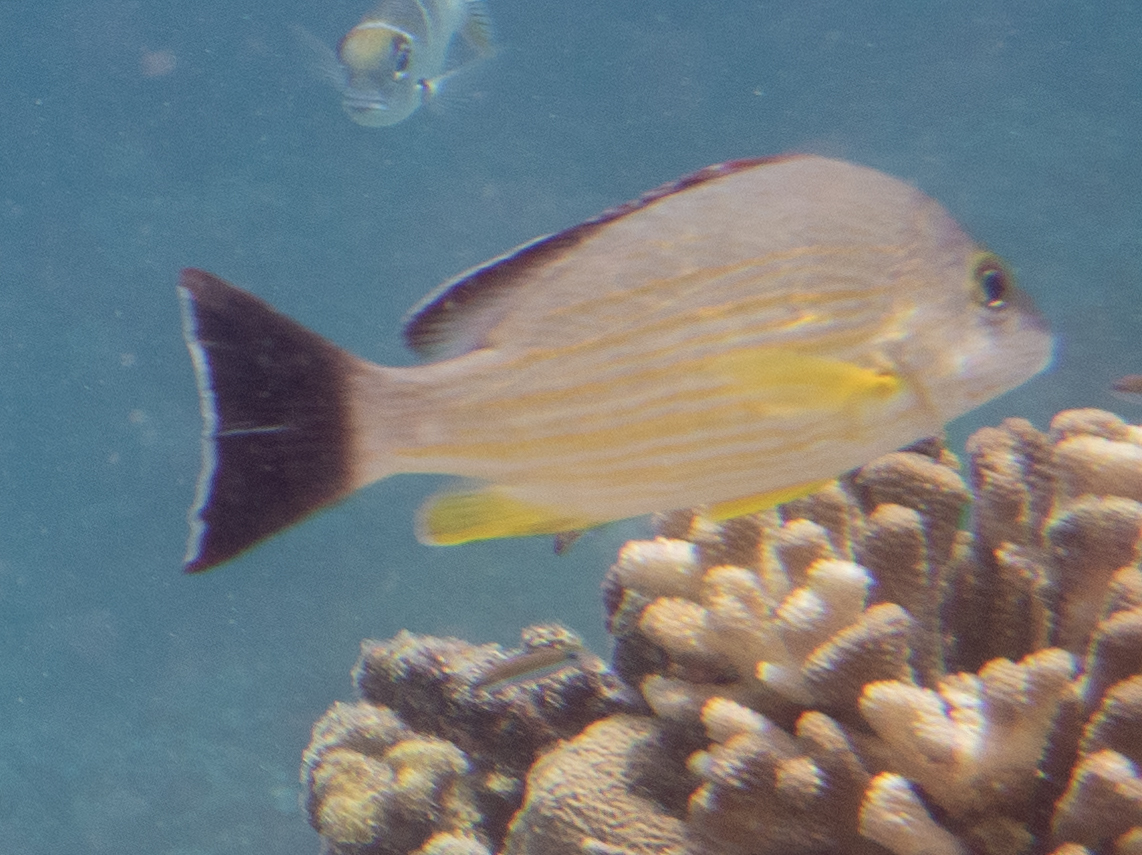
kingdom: Animalia
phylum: Chordata
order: Perciformes
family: Lutjanidae
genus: Lutjanus
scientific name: Lutjanus fulvus
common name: Blacktail snapper
